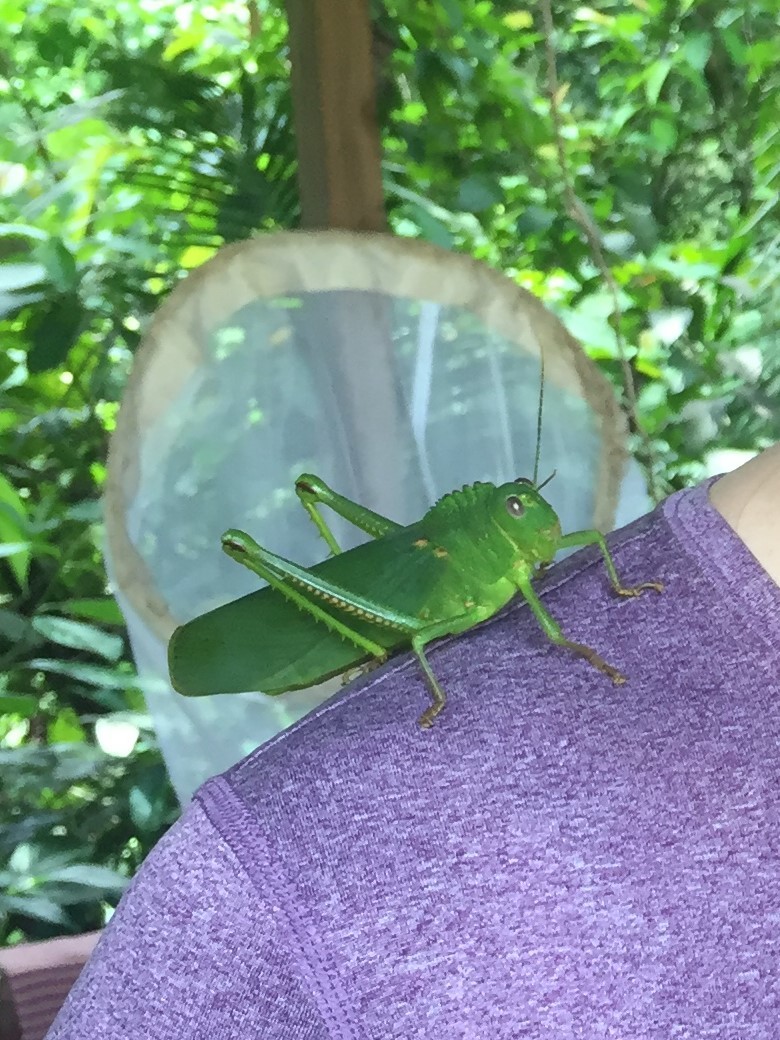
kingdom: Animalia
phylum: Arthropoda
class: Insecta
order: Orthoptera
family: Romaleidae
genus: Titanacris
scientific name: Titanacris velazquezii
